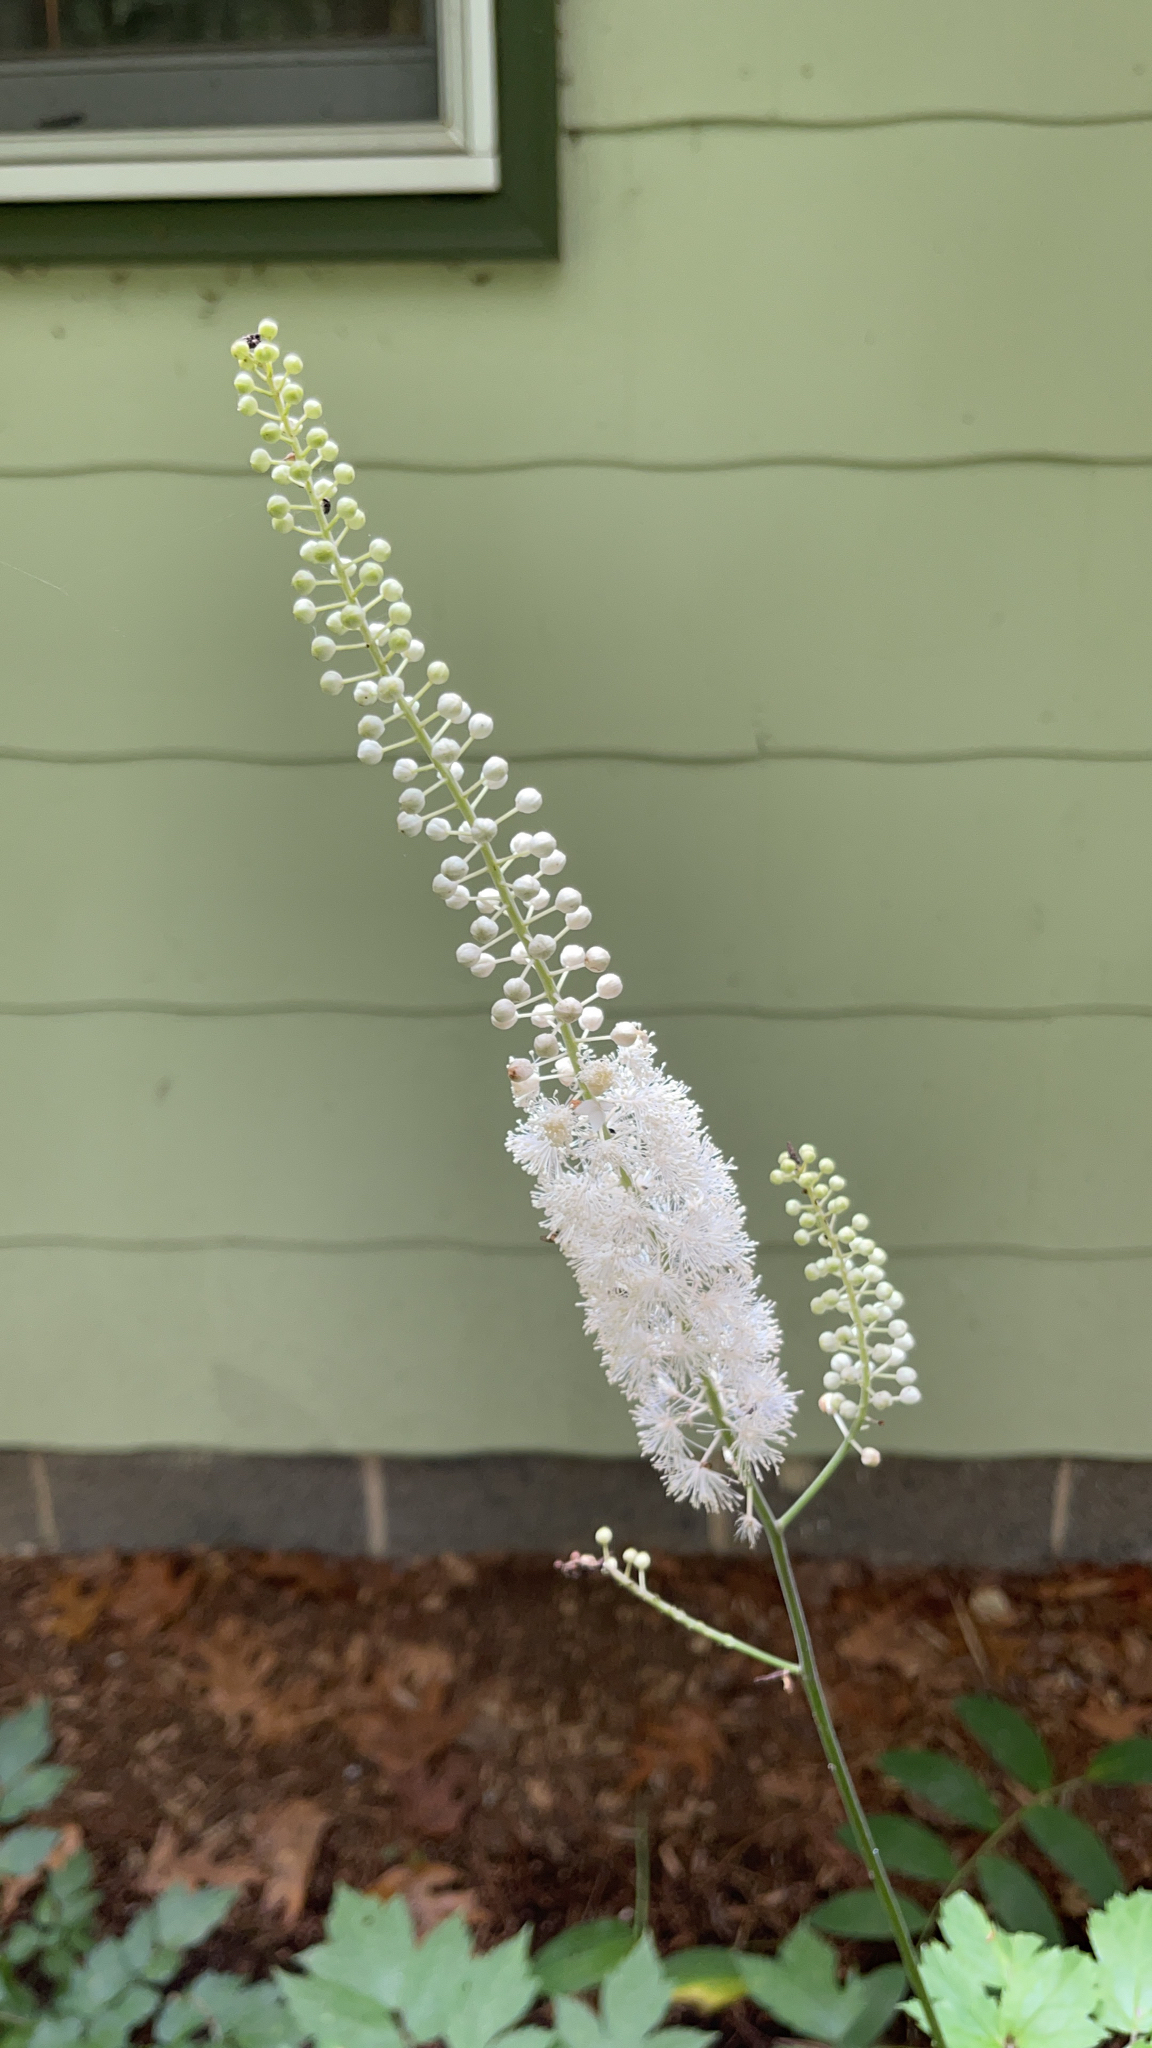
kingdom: Plantae
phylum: Tracheophyta
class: Magnoliopsida
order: Ranunculales
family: Ranunculaceae
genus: Actaea
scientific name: Actaea racemosa
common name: Black cohosh
